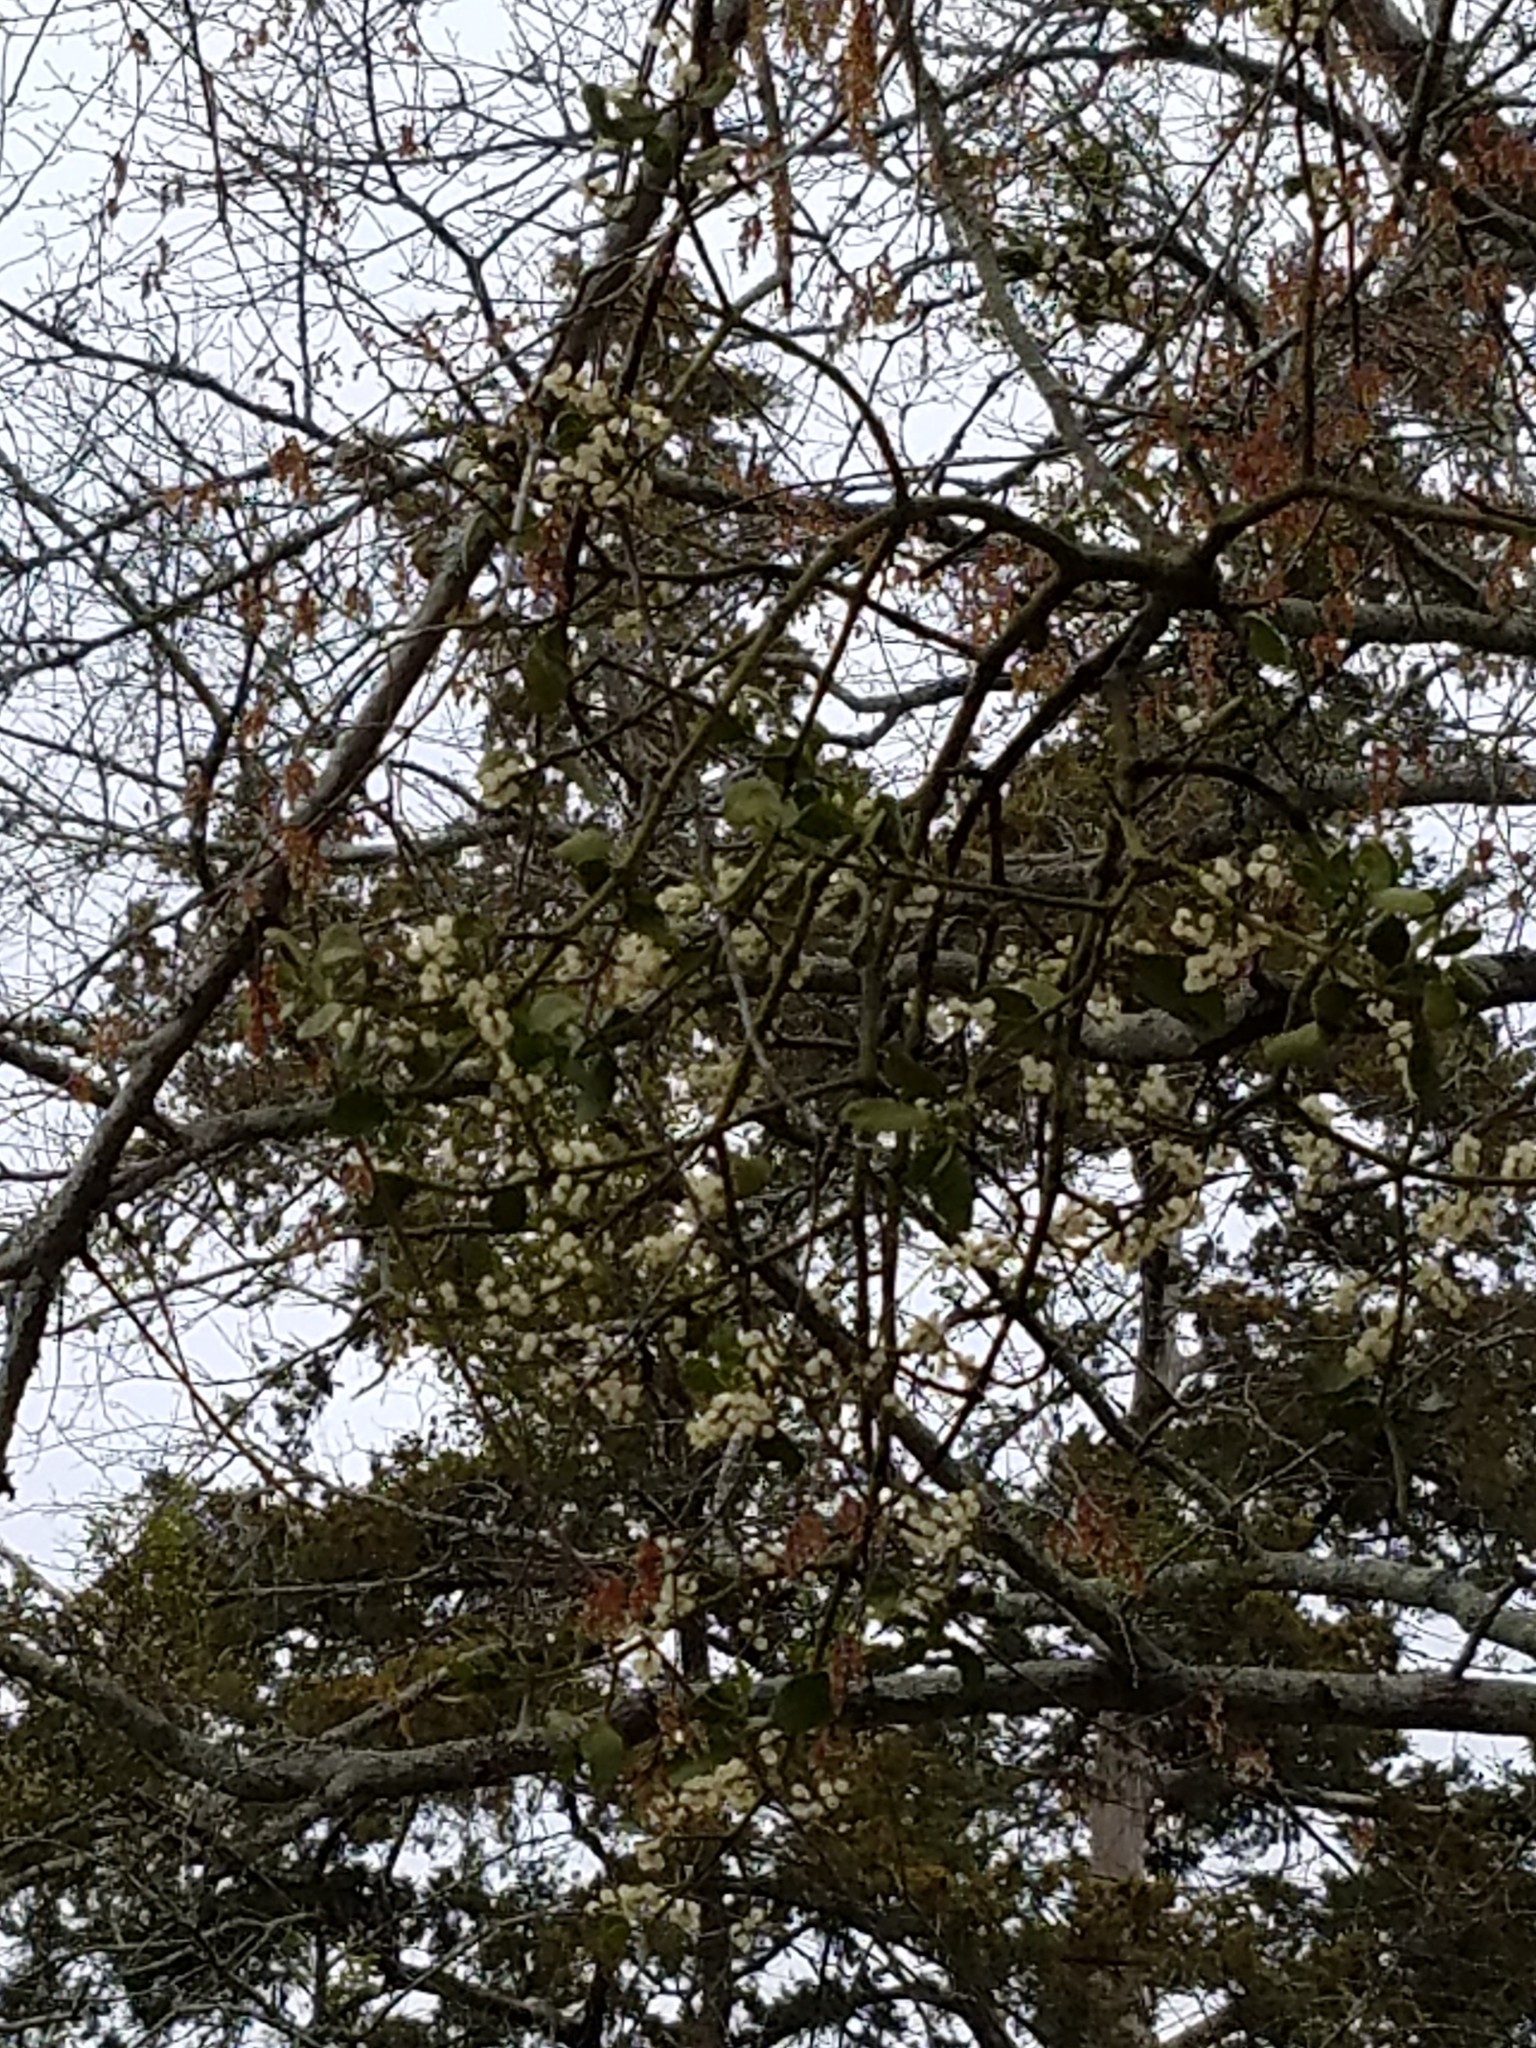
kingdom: Plantae
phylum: Tracheophyta
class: Magnoliopsida
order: Santalales
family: Viscaceae
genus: Phoradendron
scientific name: Phoradendron leucarpum
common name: Pacific mistletoe
